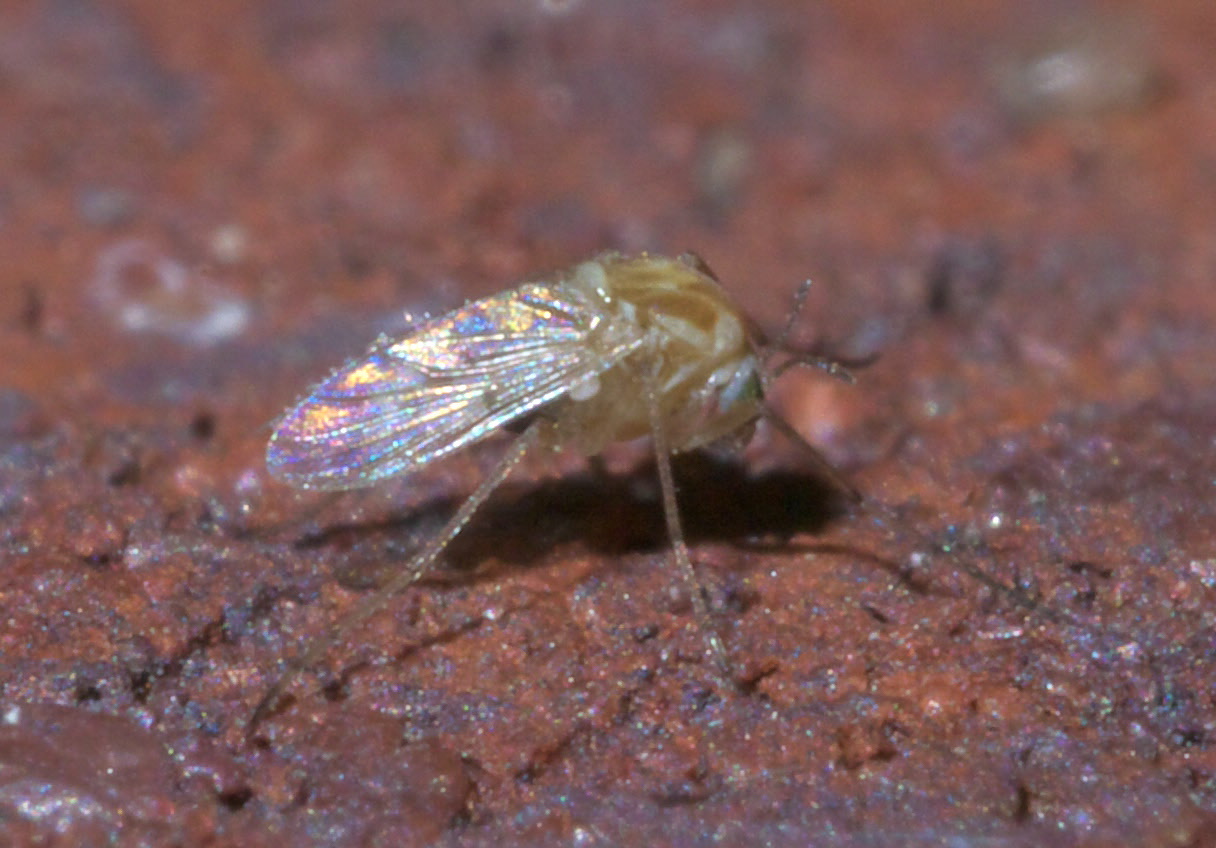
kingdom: Animalia
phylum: Arthropoda
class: Insecta
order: Diptera
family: Chironomidae
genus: Procladius
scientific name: Procladius bellus
